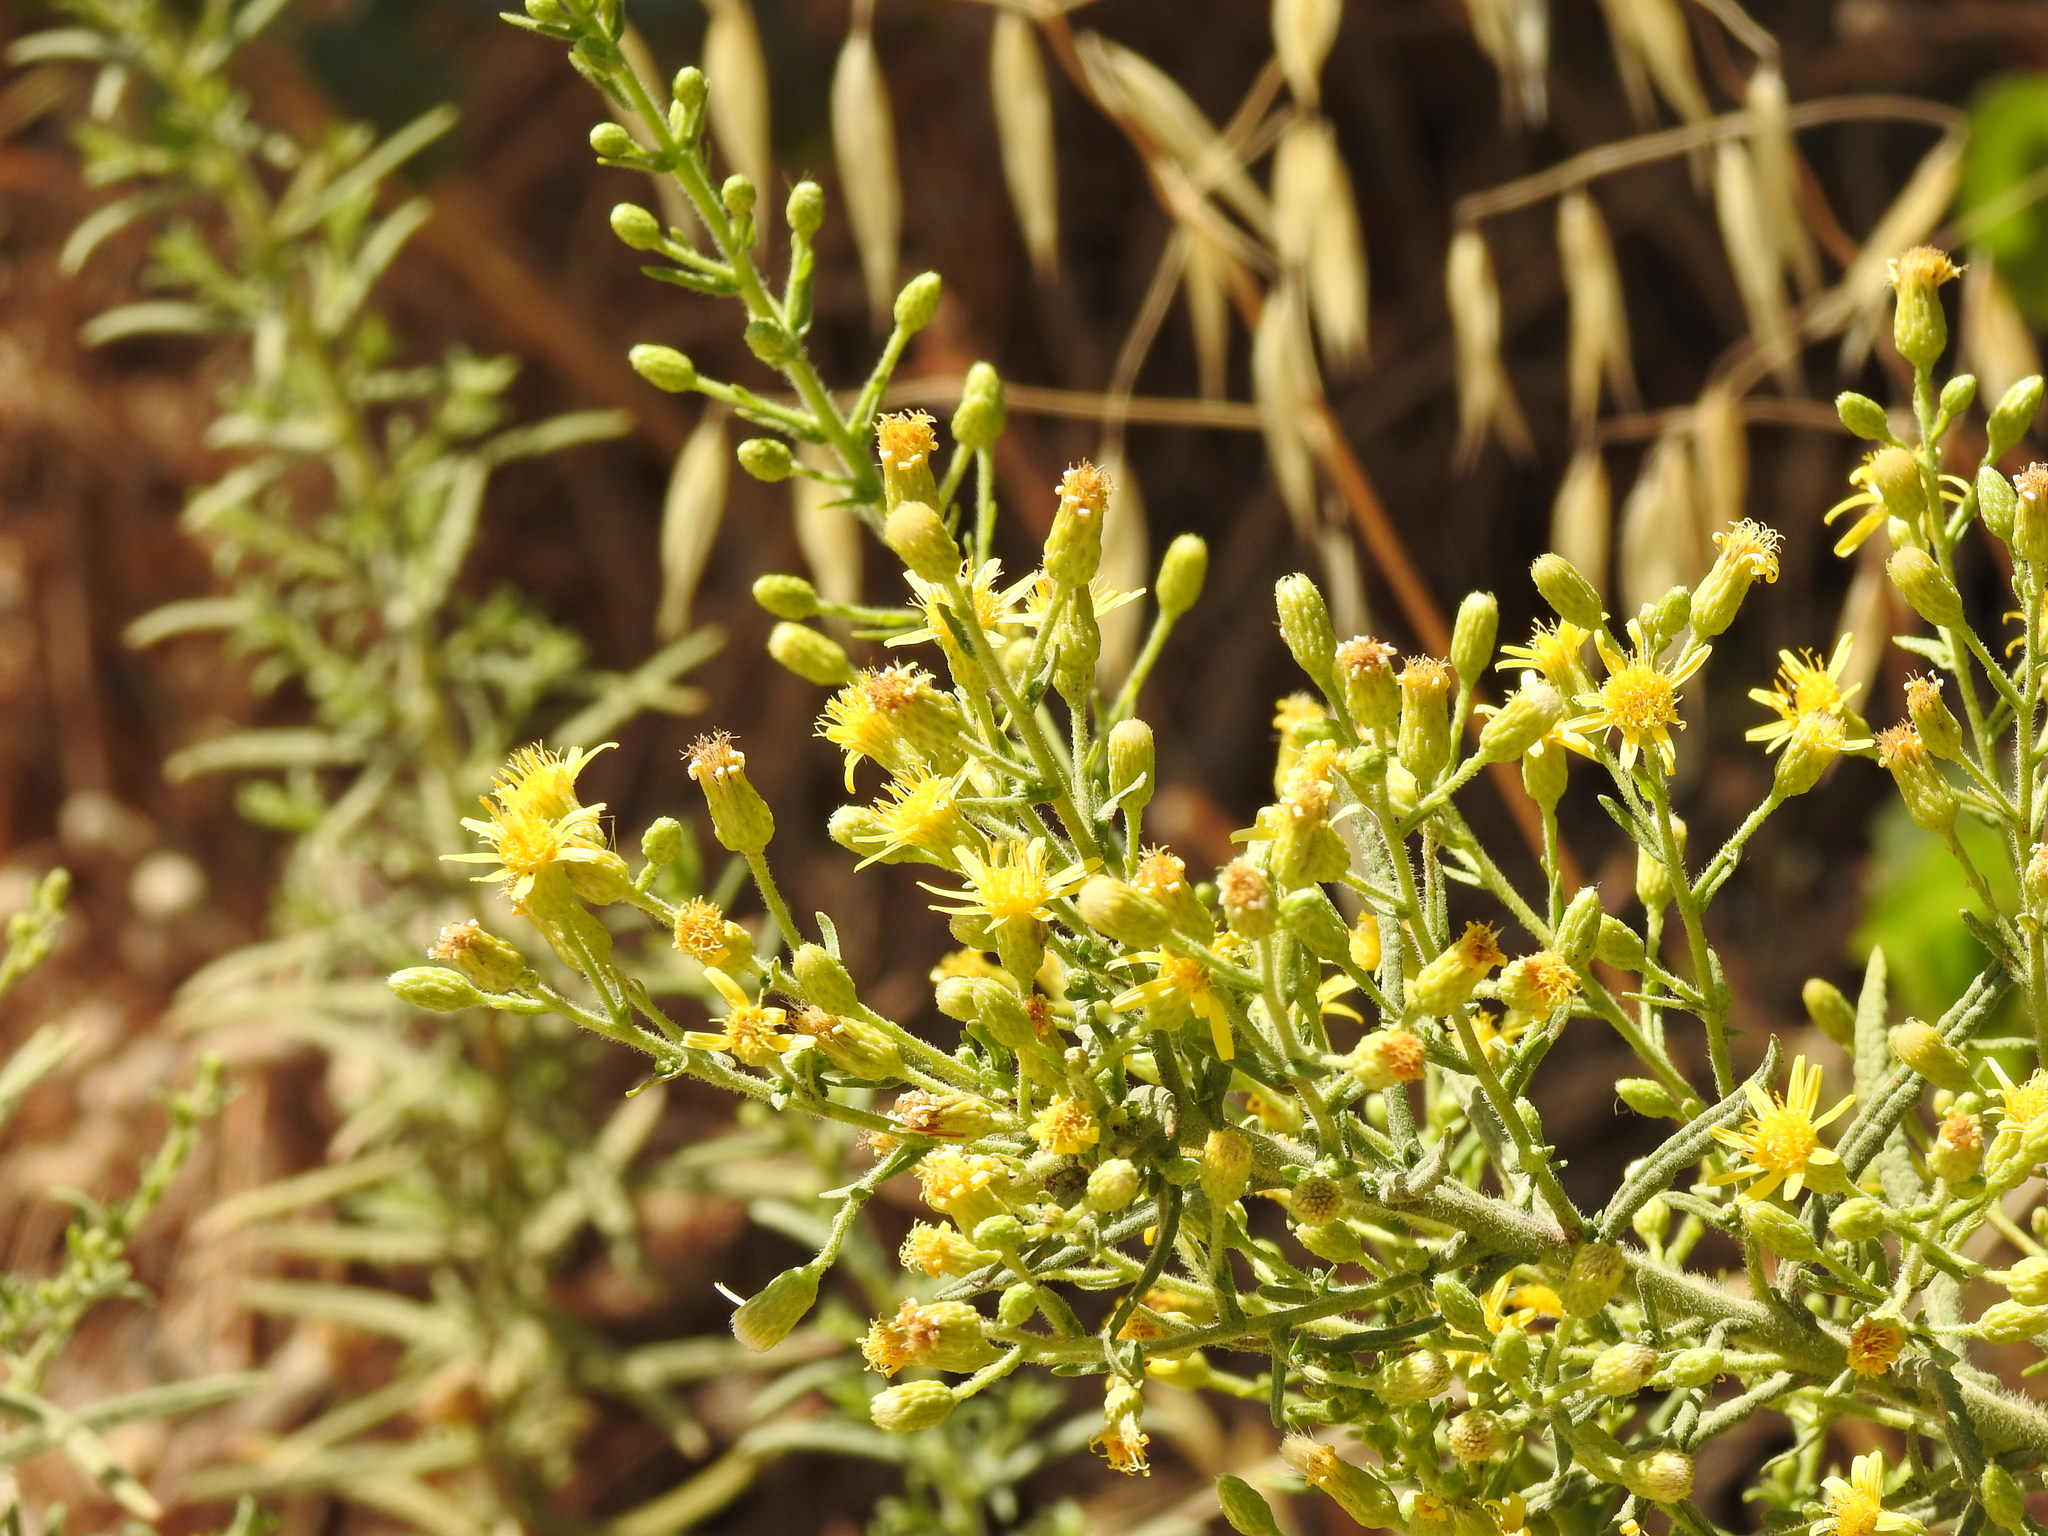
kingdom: Plantae
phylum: Tracheophyta
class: Magnoliopsida
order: Asterales
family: Asteraceae
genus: Dittrichia
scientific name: Dittrichia viscosa
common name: Woody fleabane
